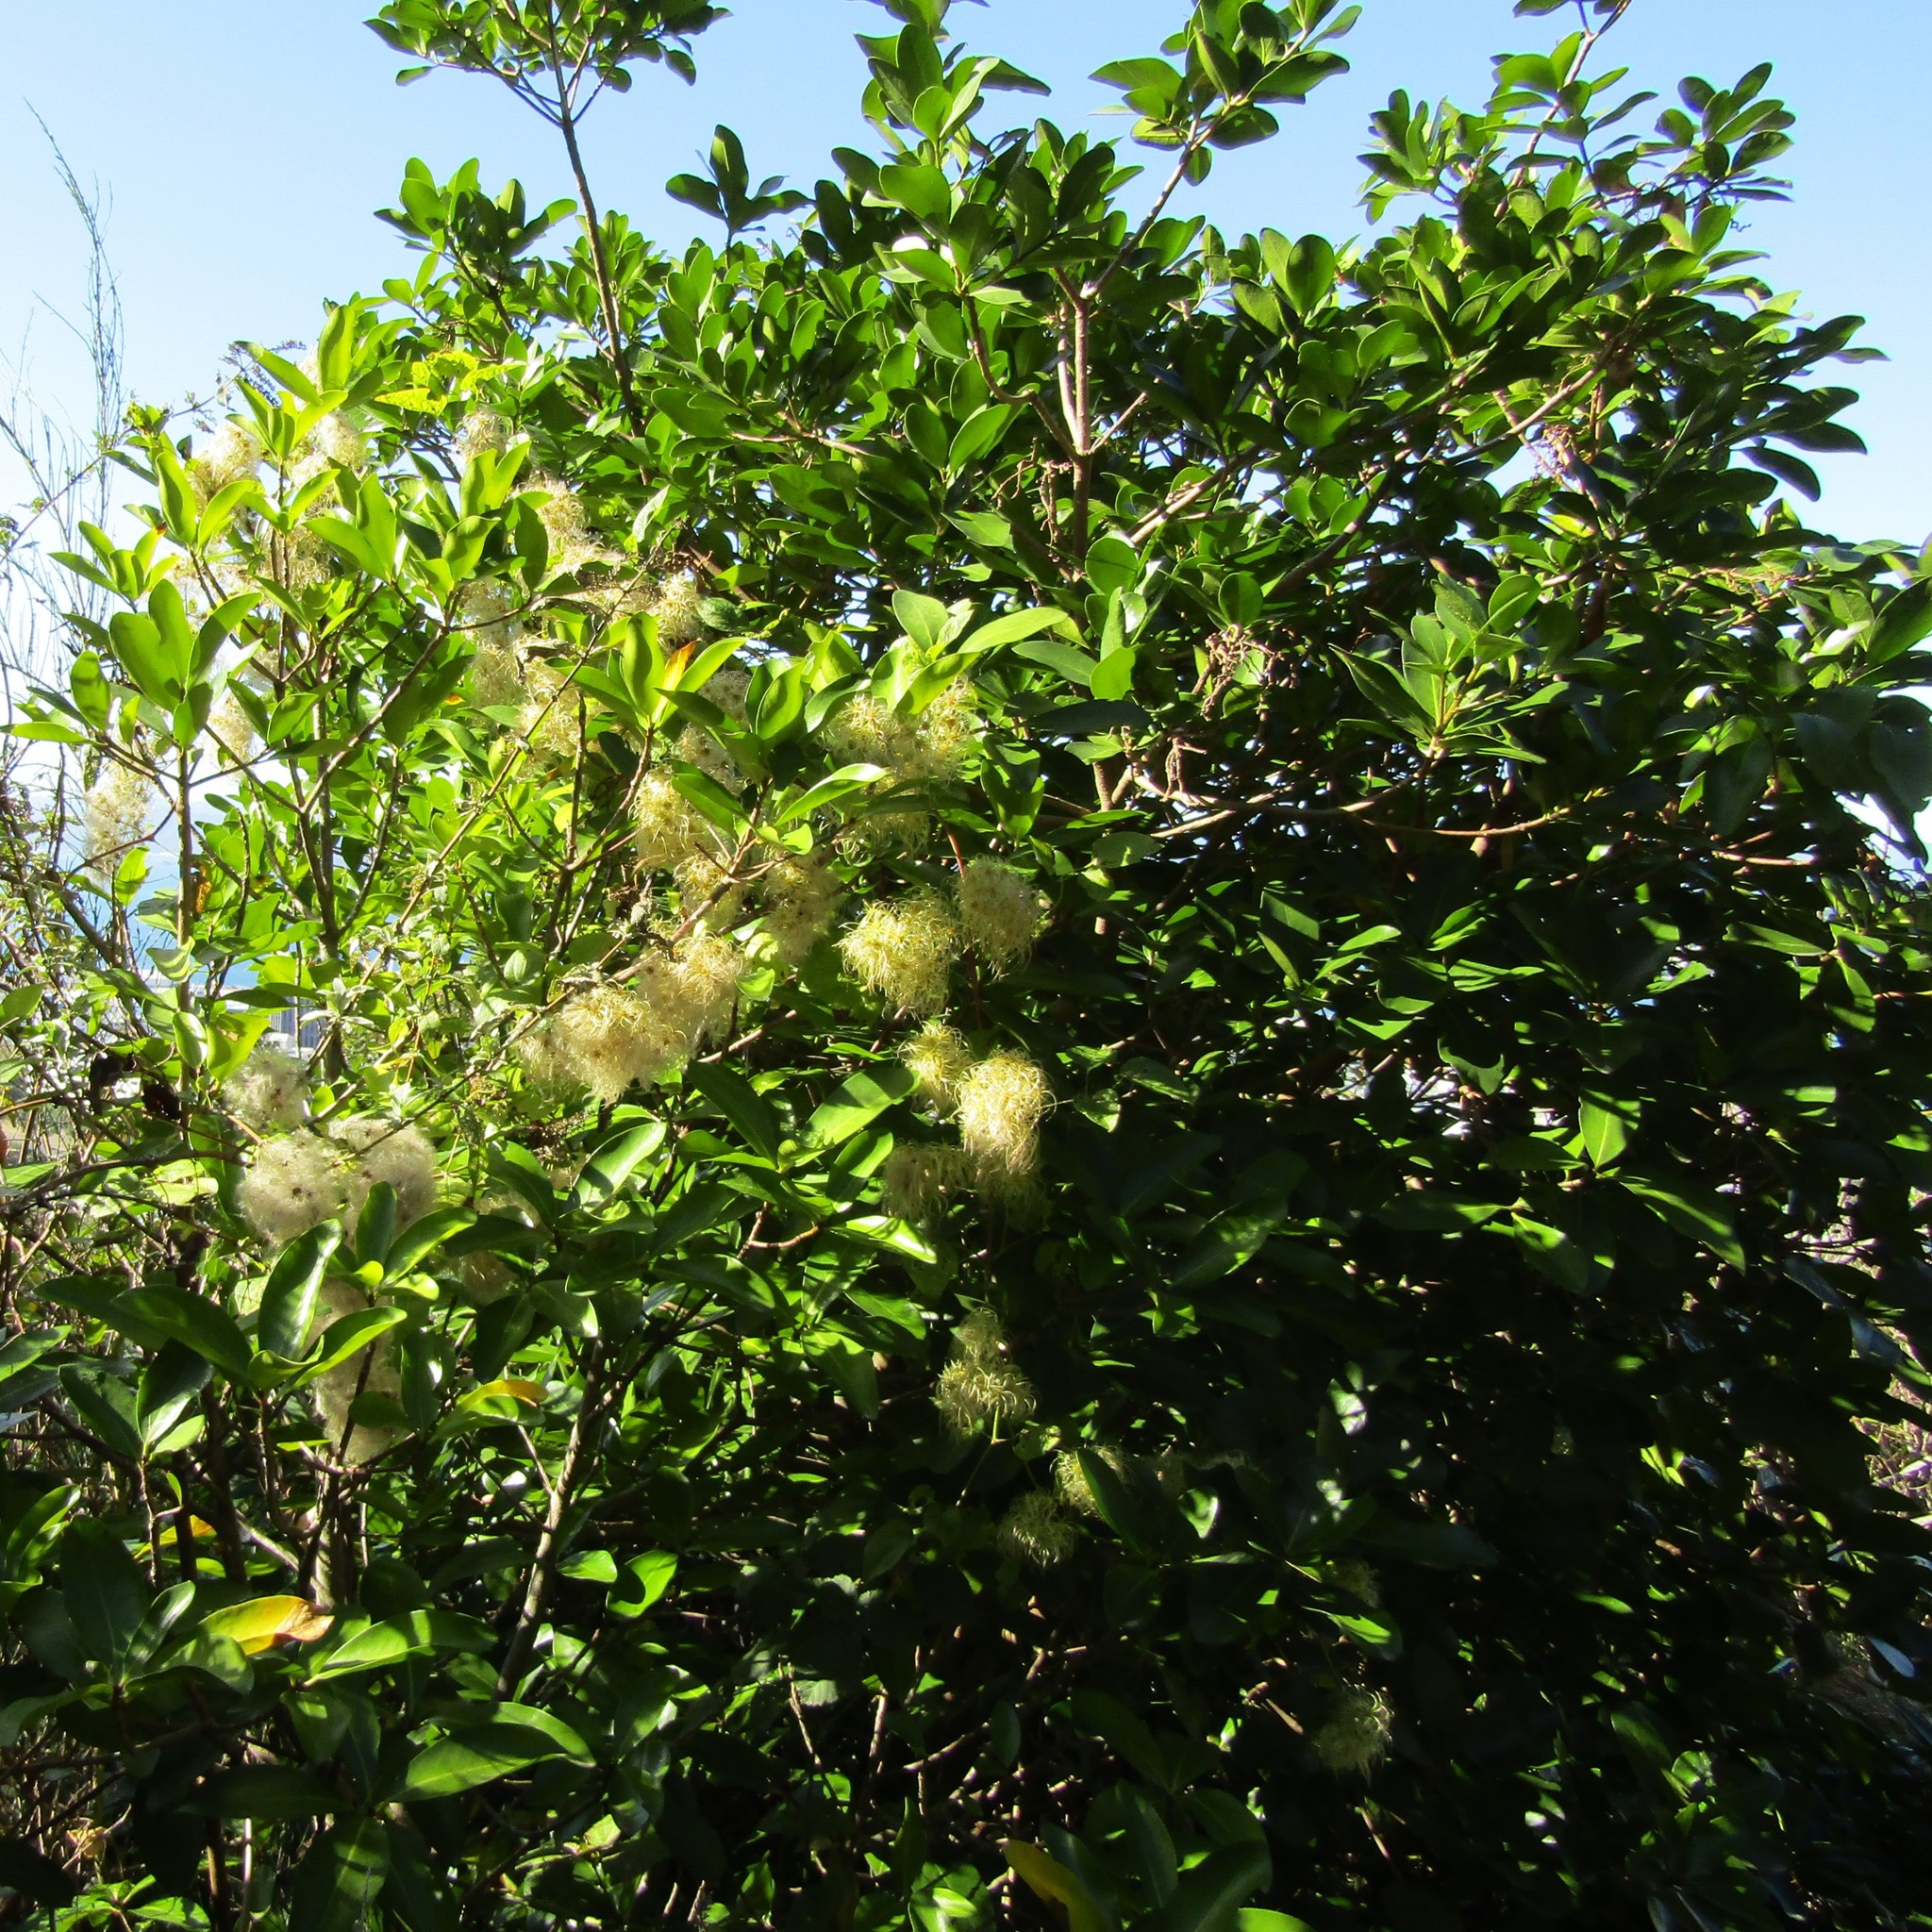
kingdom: Plantae
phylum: Tracheophyta
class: Magnoliopsida
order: Cucurbitales
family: Corynocarpaceae
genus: Corynocarpus
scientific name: Corynocarpus laevigatus
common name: New zealand laurel
